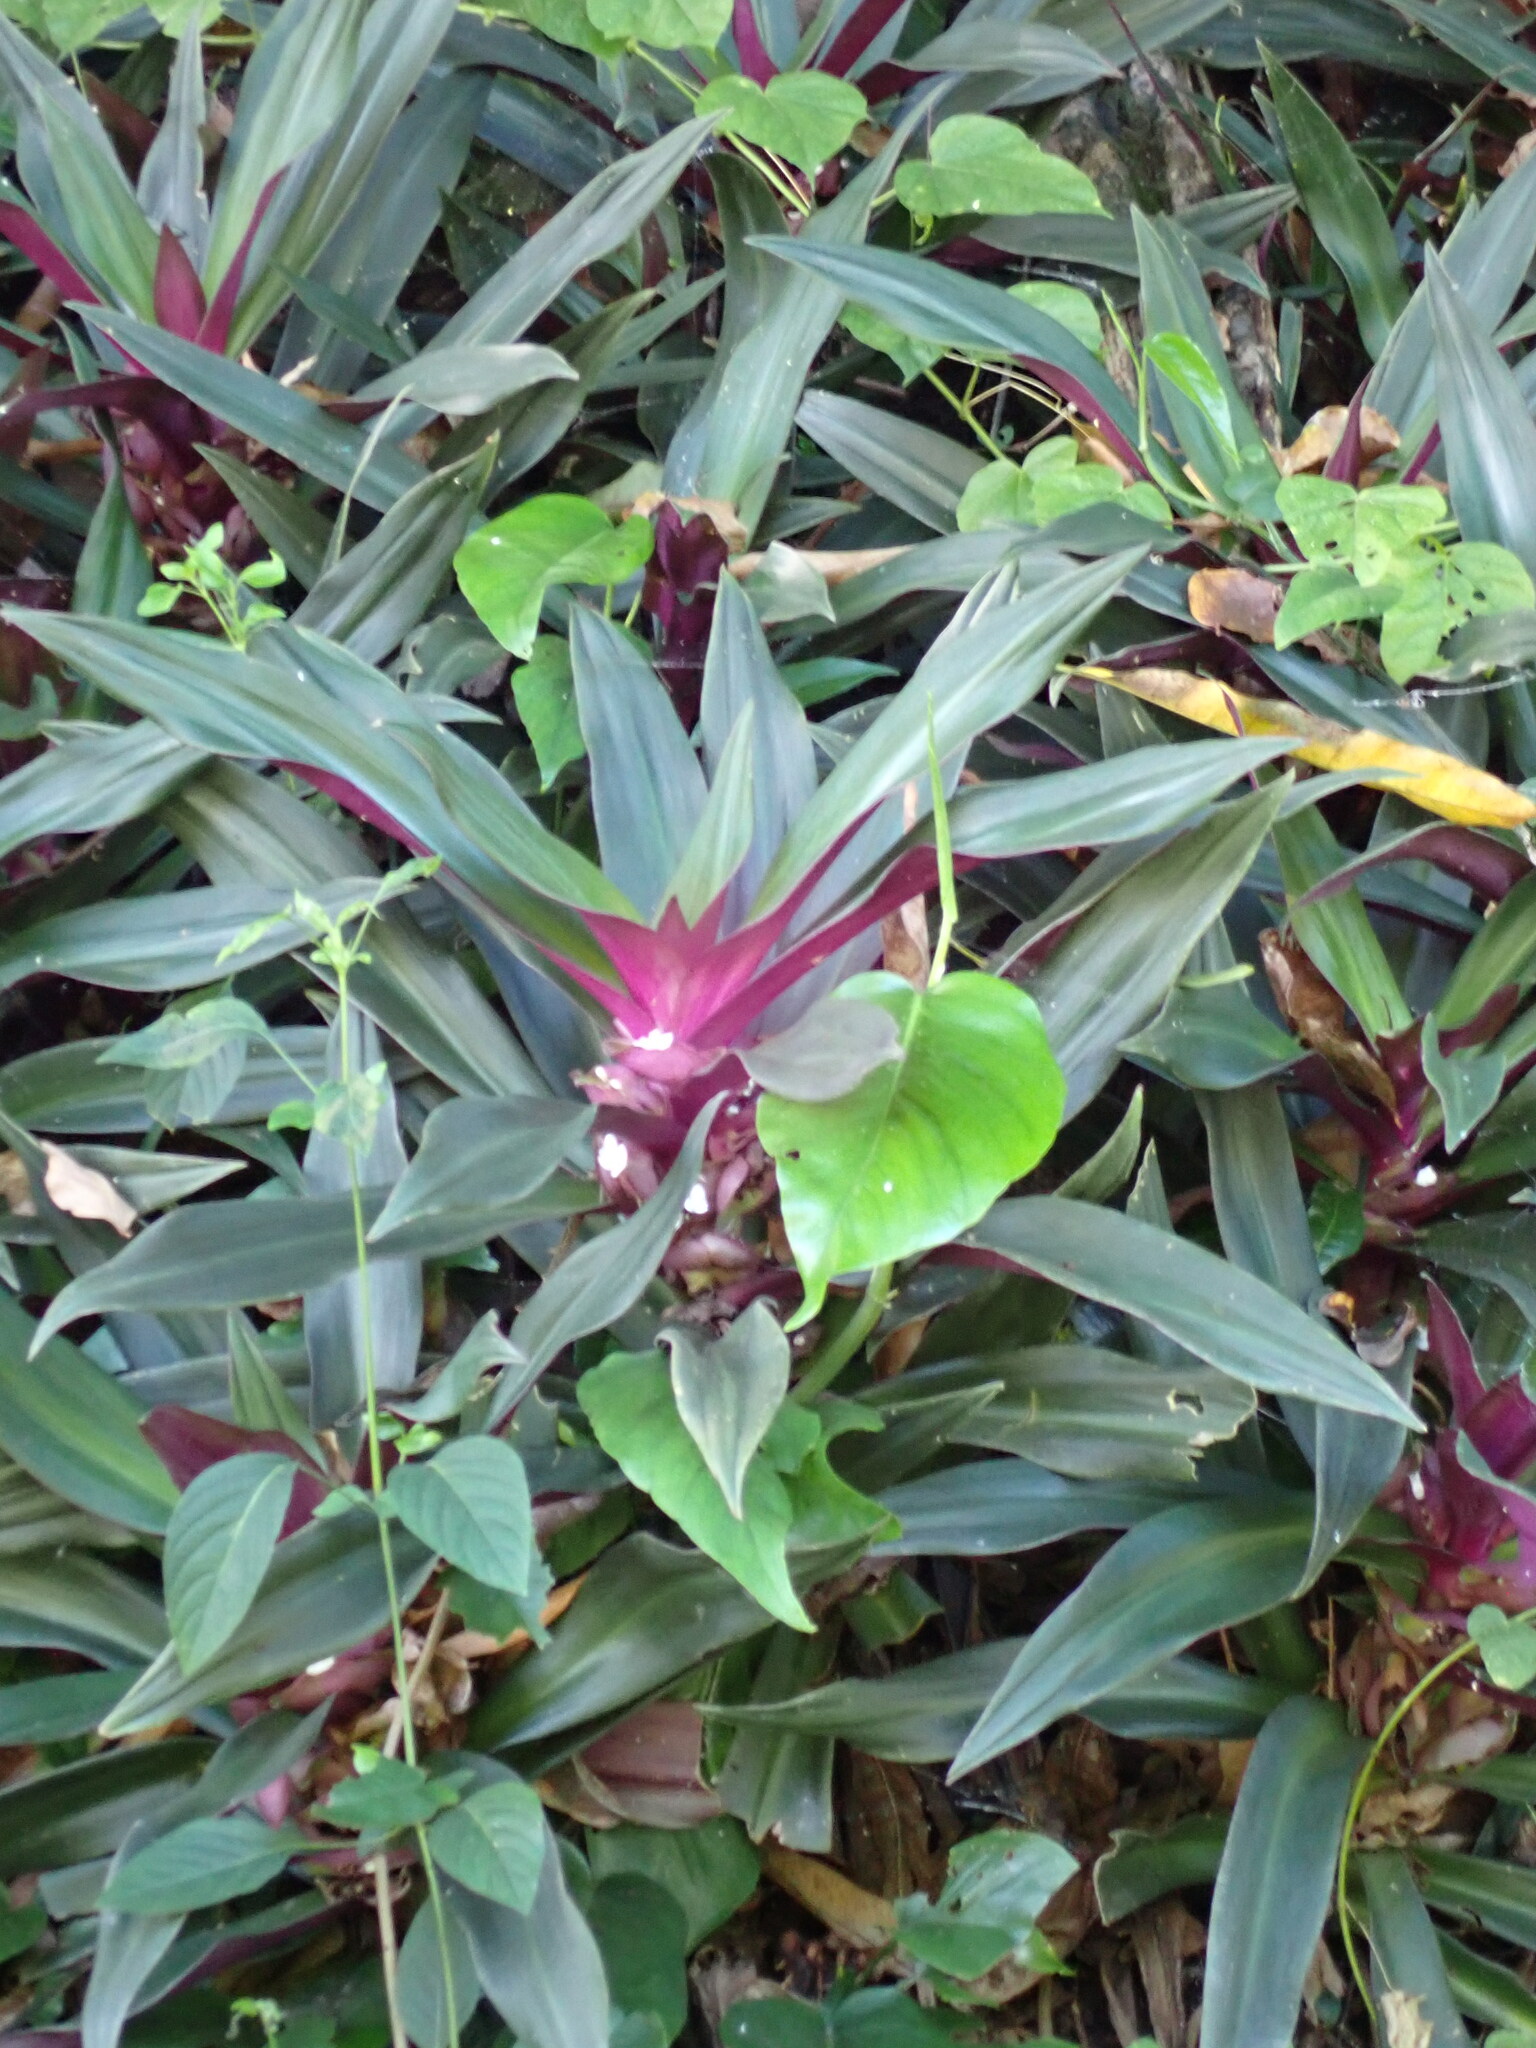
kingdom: Plantae
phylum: Tracheophyta
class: Liliopsida
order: Commelinales
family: Commelinaceae
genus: Tradescantia
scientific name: Tradescantia spathacea
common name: Boatlily
